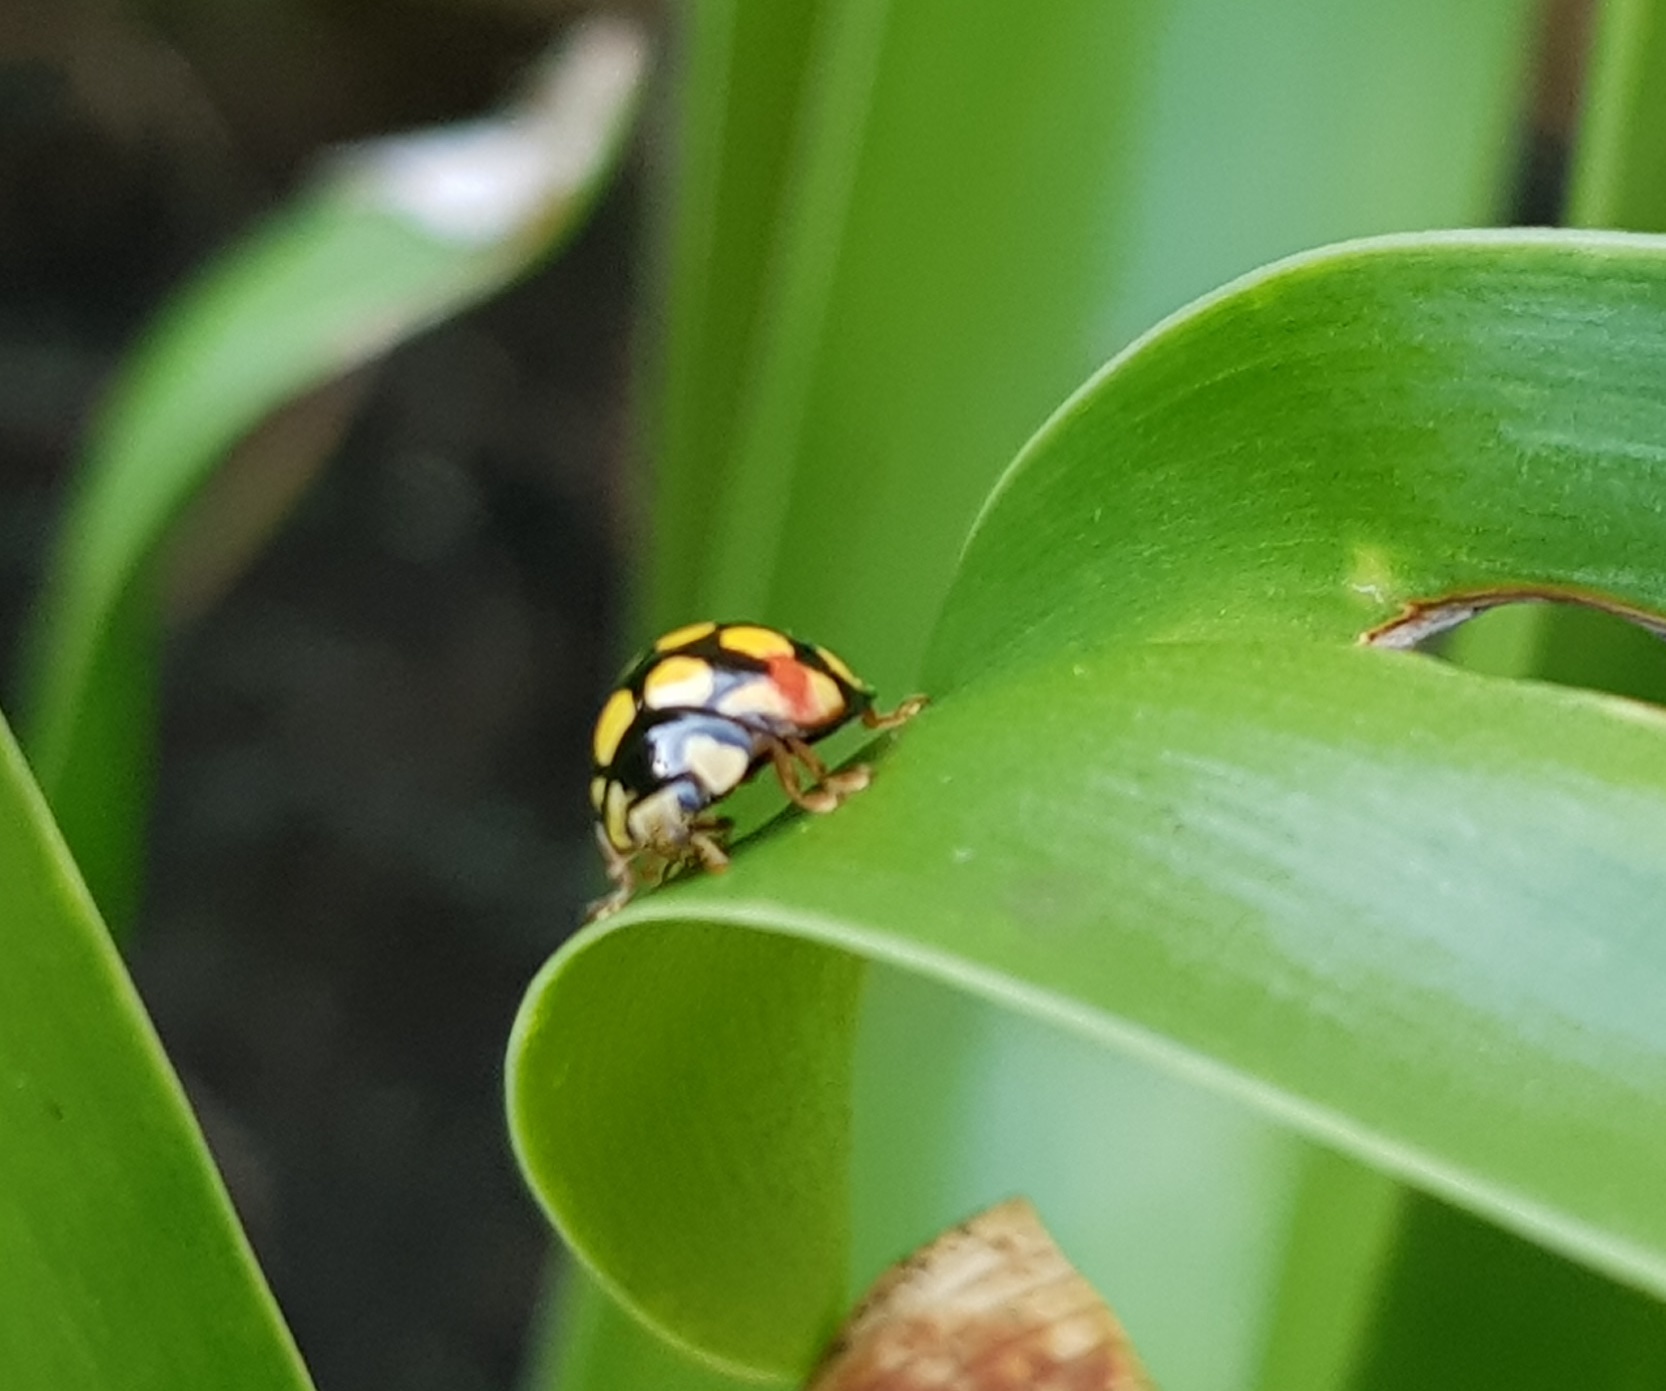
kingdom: Animalia
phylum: Arthropoda
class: Insecta
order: Coleoptera
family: Coccinellidae
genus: Cheilomenes
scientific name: Cheilomenes lunata
